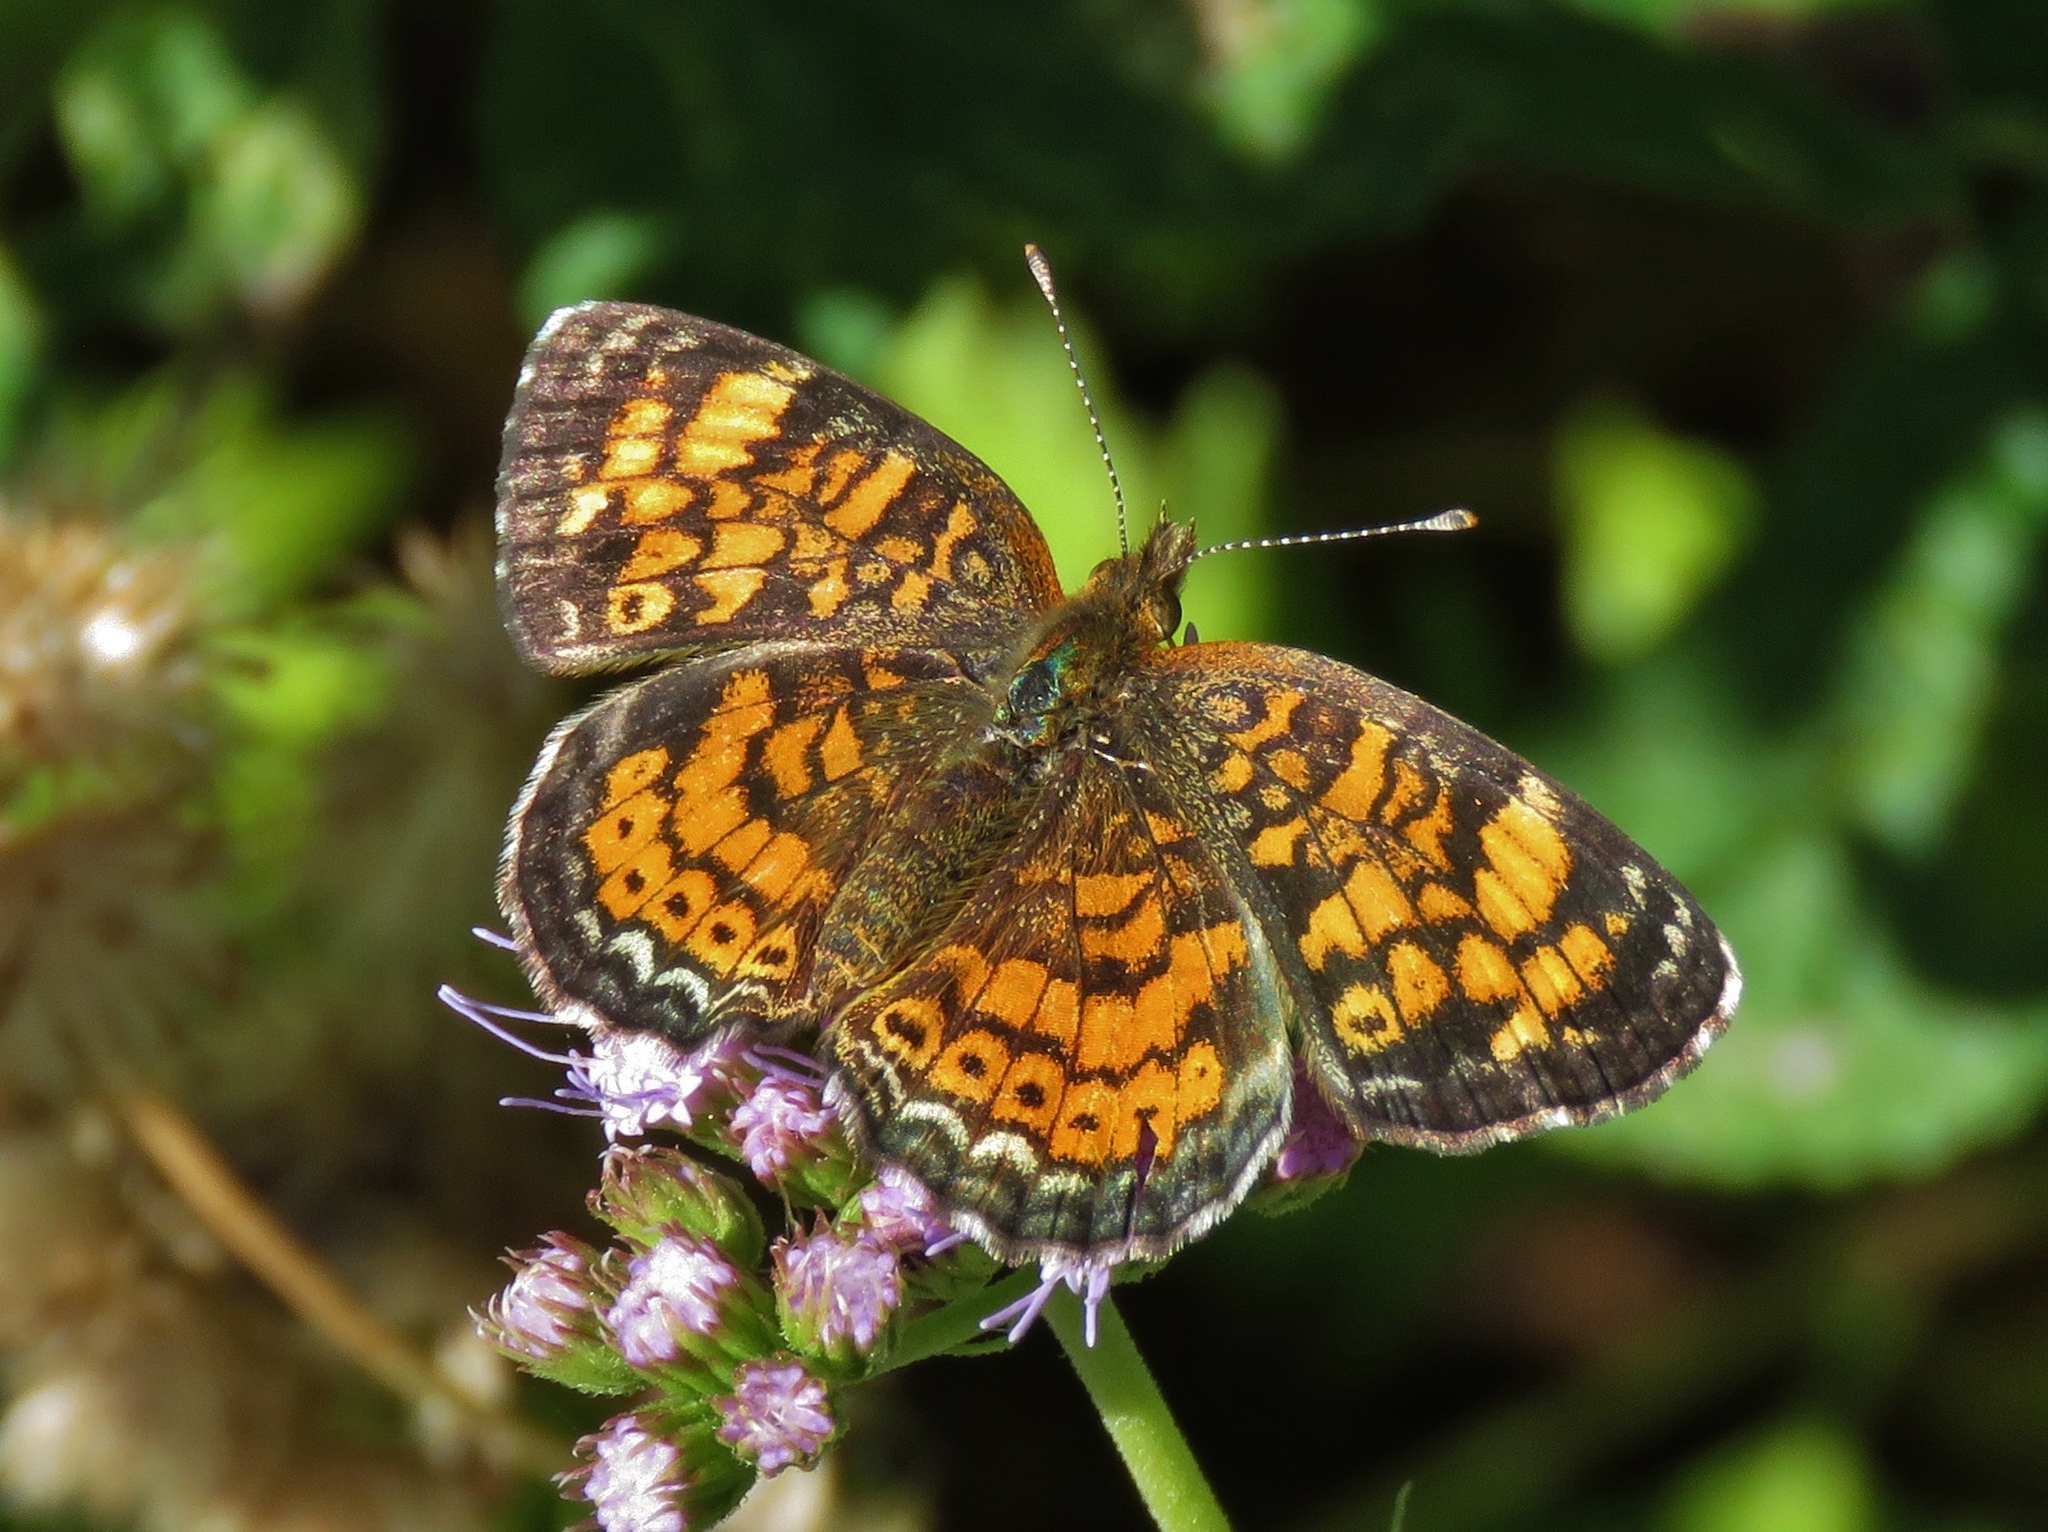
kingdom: Animalia
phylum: Arthropoda
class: Insecta
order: Lepidoptera
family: Nymphalidae
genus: Phyciodes
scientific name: Phyciodes tharos
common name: Pearl crescent
